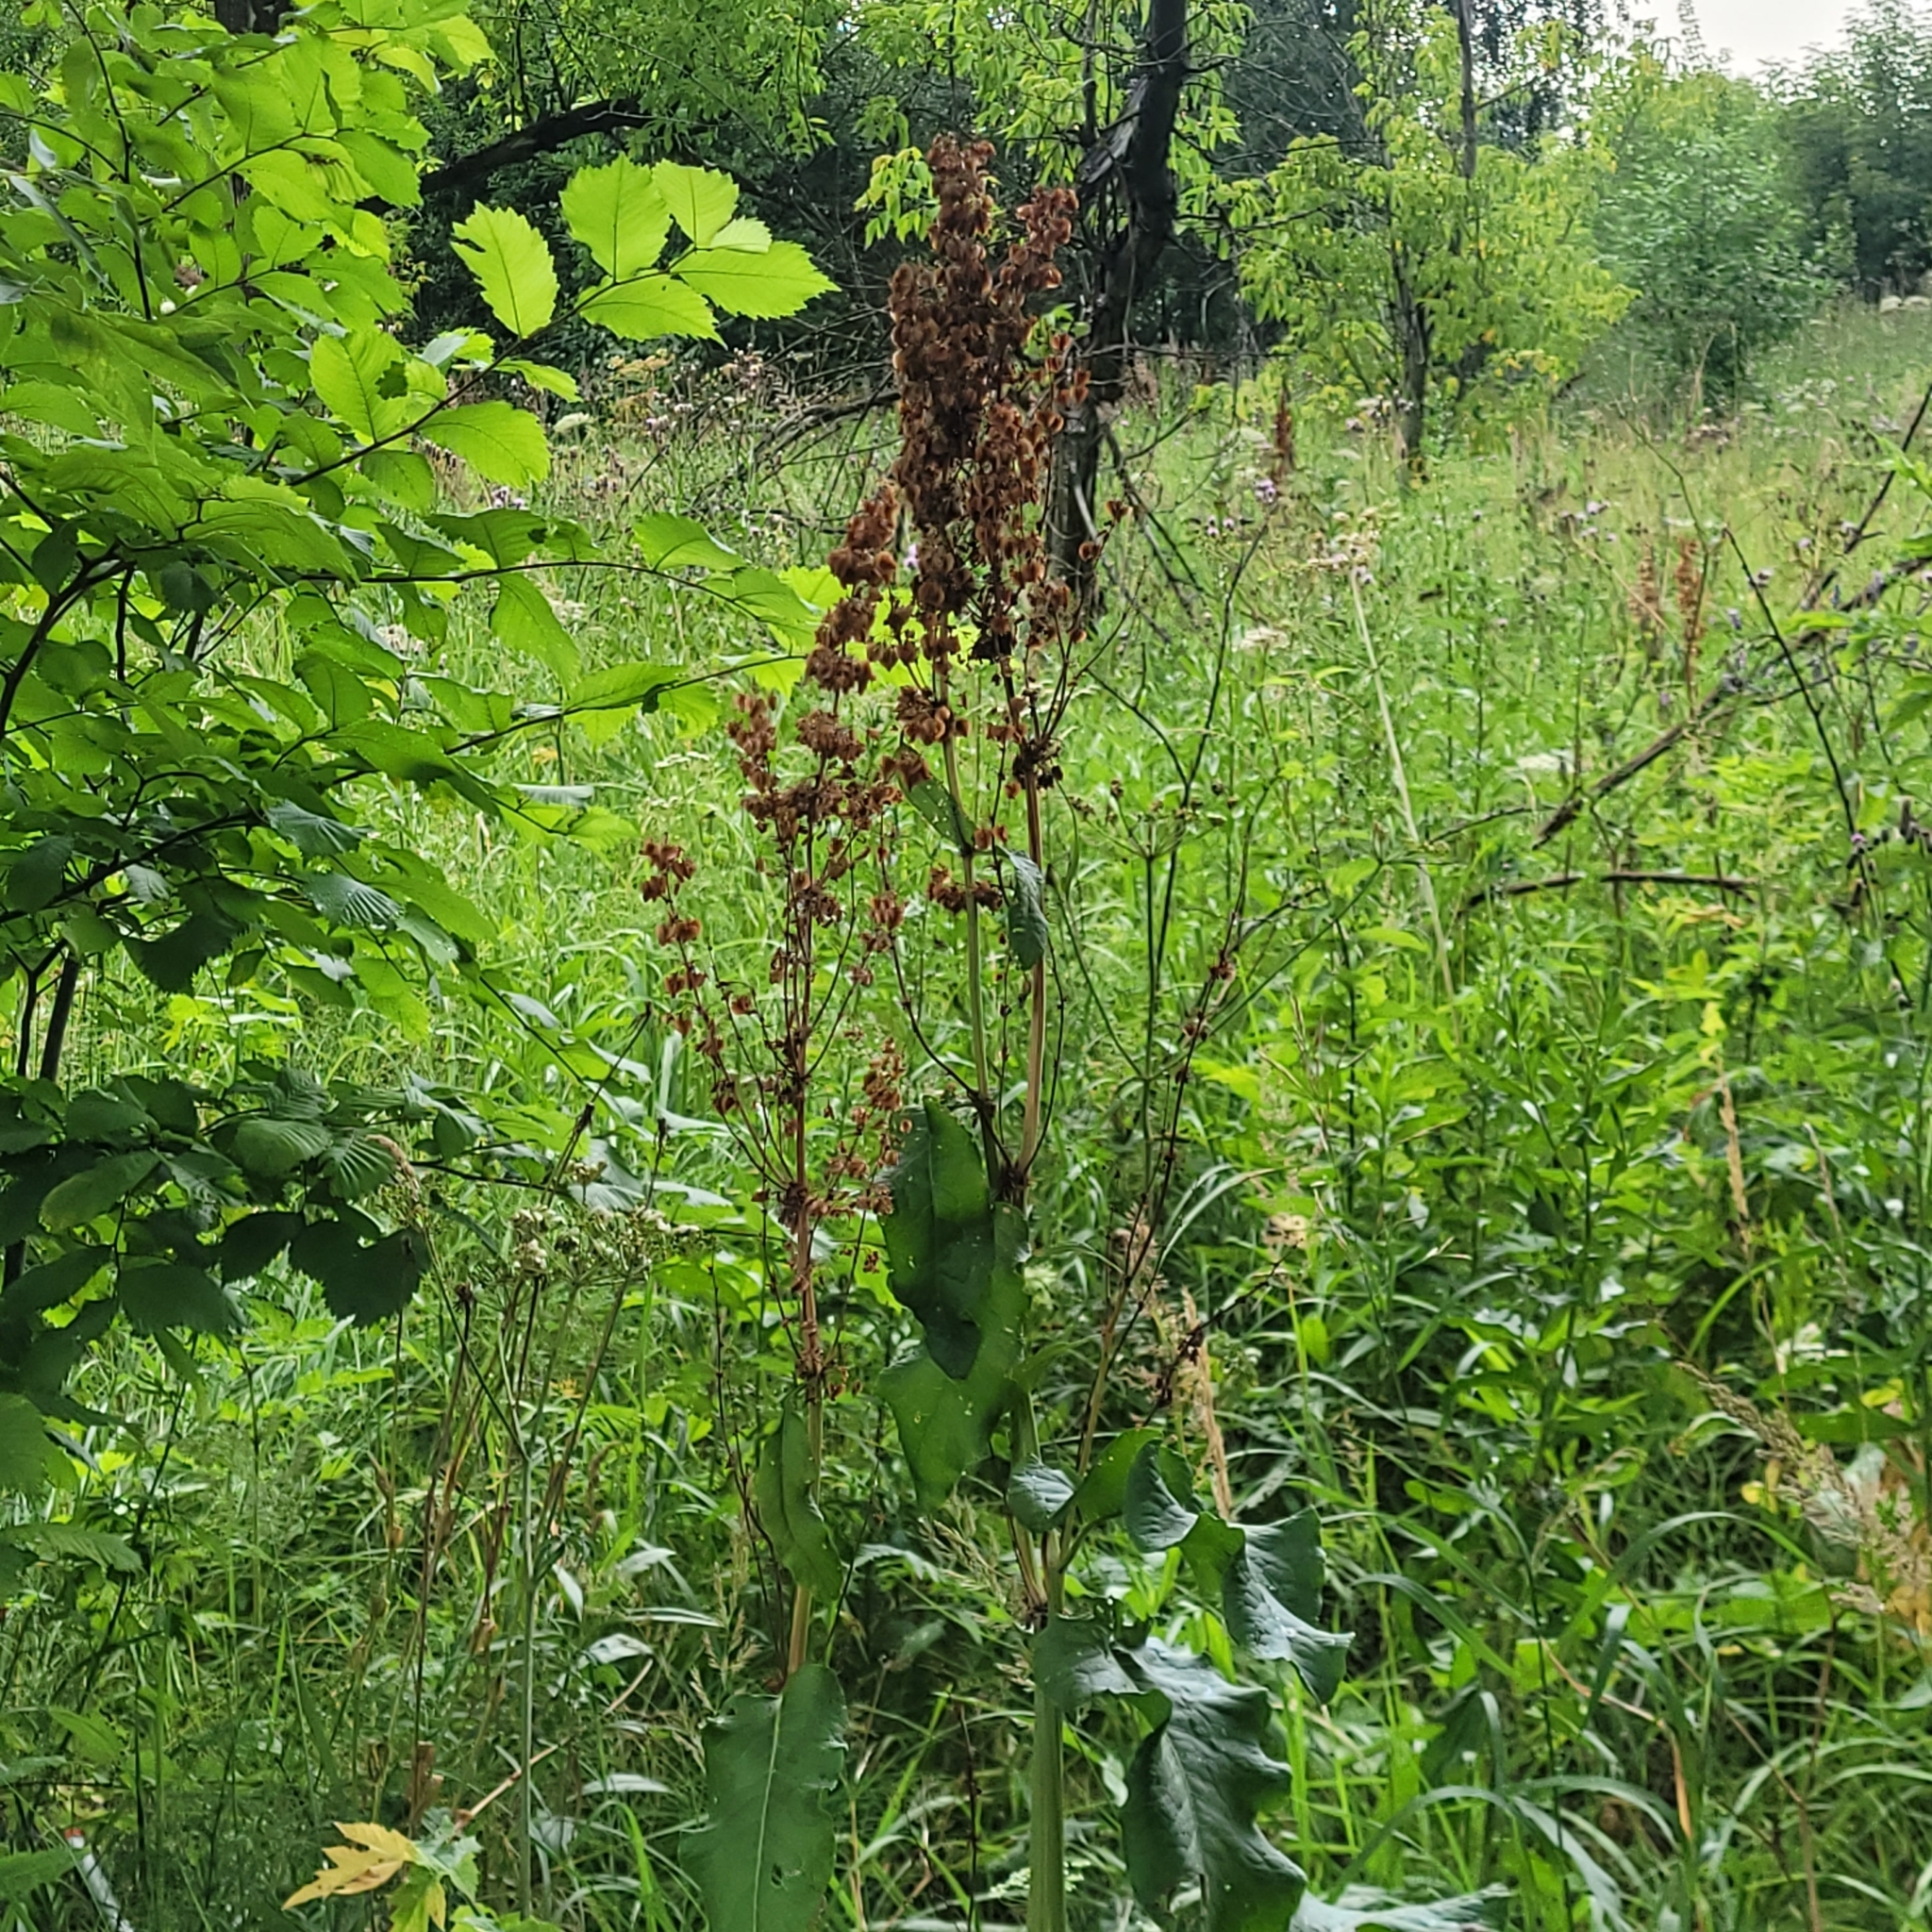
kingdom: Plantae
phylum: Tracheophyta
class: Magnoliopsida
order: Caryophyllales
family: Polygonaceae
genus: Rumex
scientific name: Rumex confertus
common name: Russian dock
